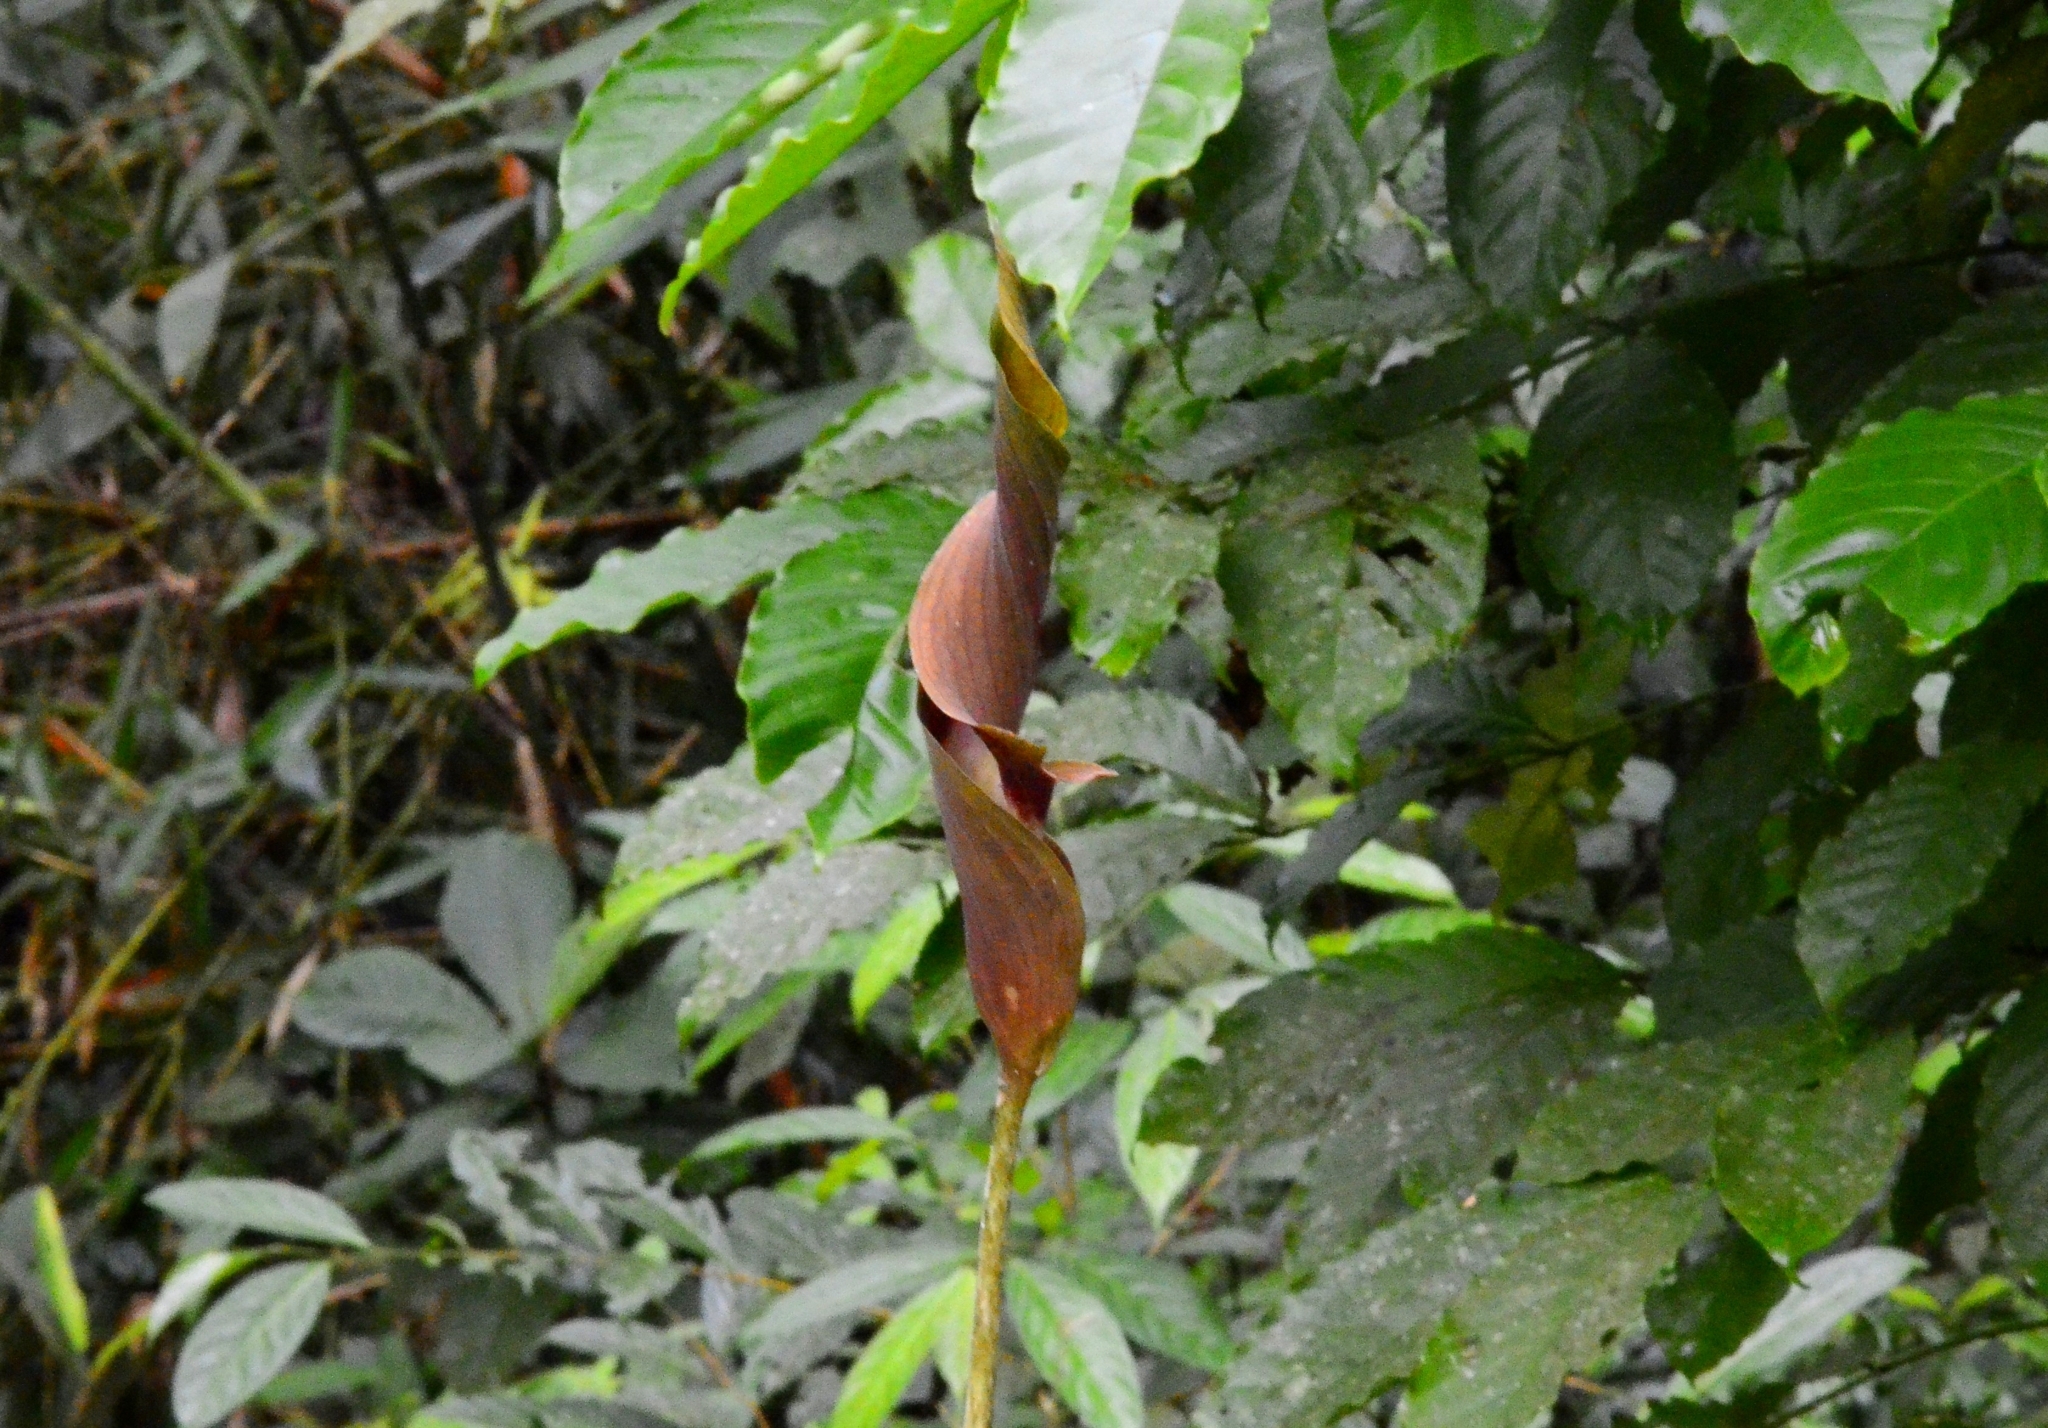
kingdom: Plantae
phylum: Tracheophyta
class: Liliopsida
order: Alismatales
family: Araceae
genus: Anaphyllum
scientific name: Anaphyllum wightii
